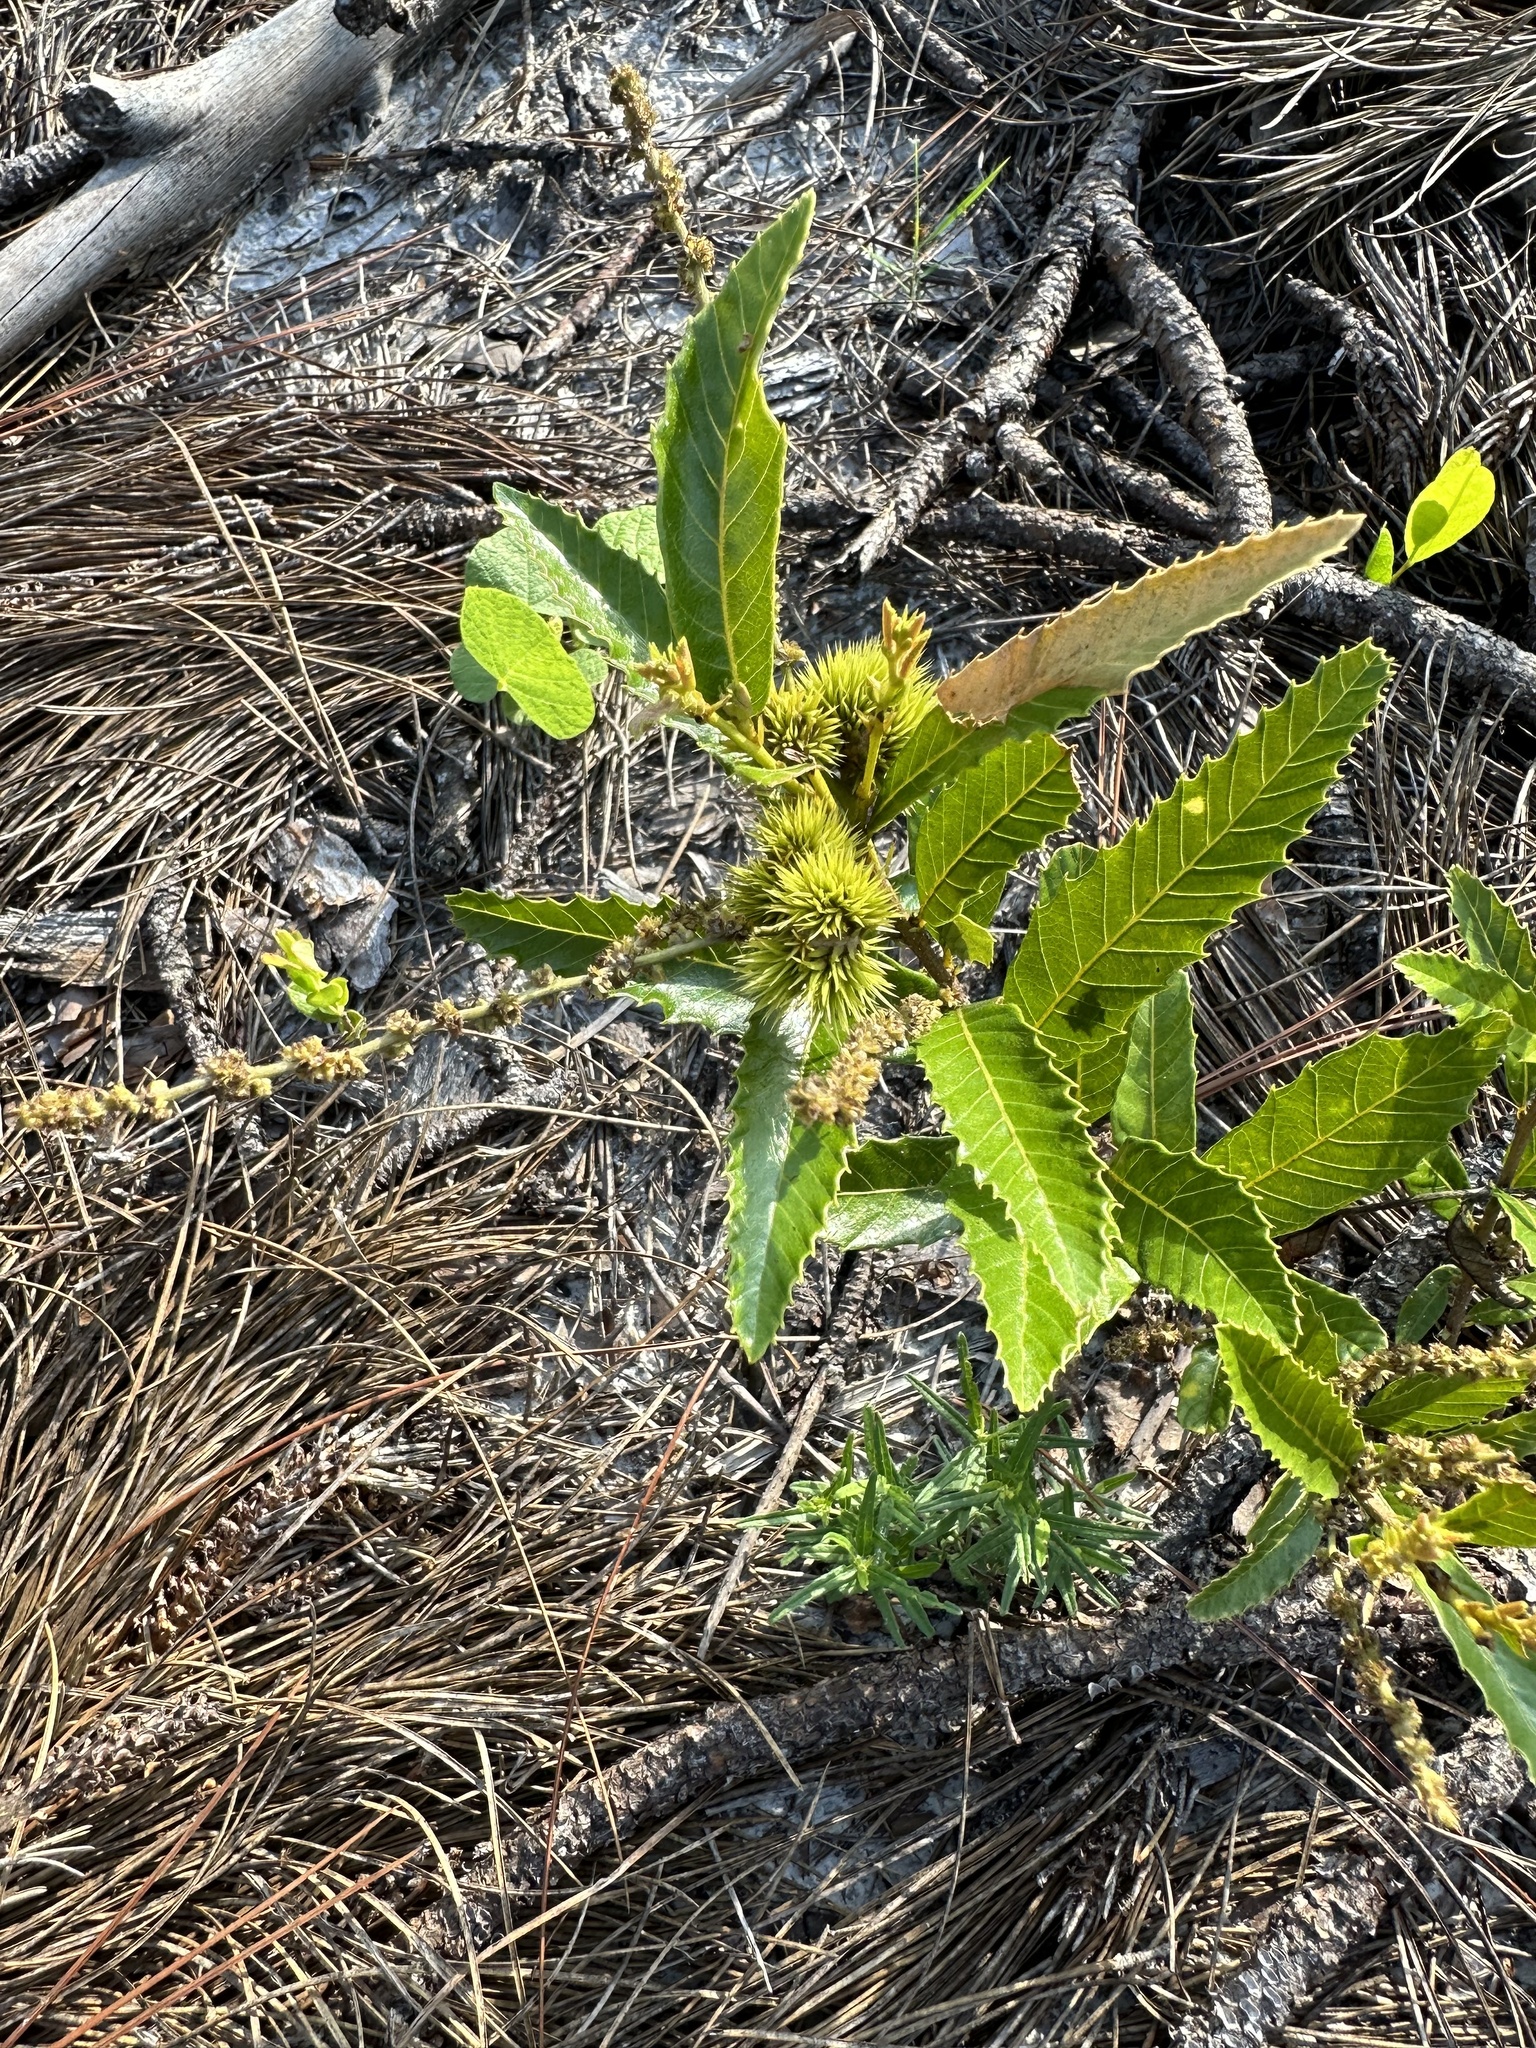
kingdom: Plantae
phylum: Tracheophyta
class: Magnoliopsida
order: Fagales
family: Fagaceae
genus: Castanea
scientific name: Castanea pumila
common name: Chinkapin
